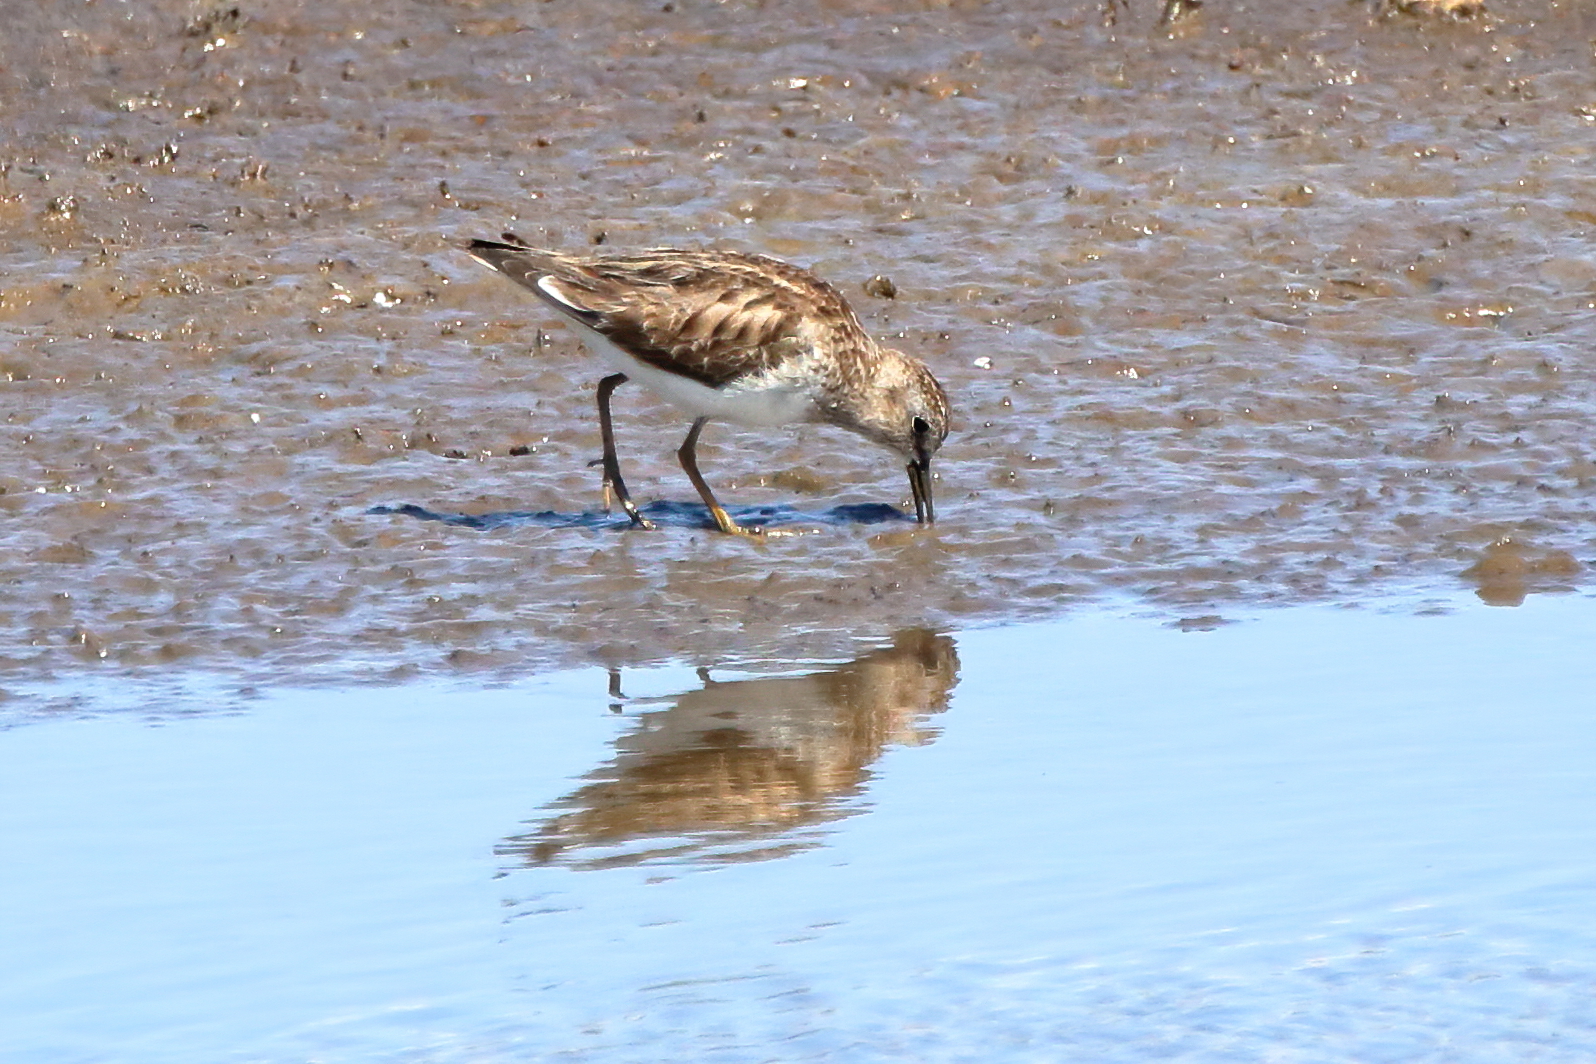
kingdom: Animalia
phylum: Chordata
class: Aves
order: Charadriiformes
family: Scolopacidae
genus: Calidris
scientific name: Calidris minutilla
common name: Least sandpiper
